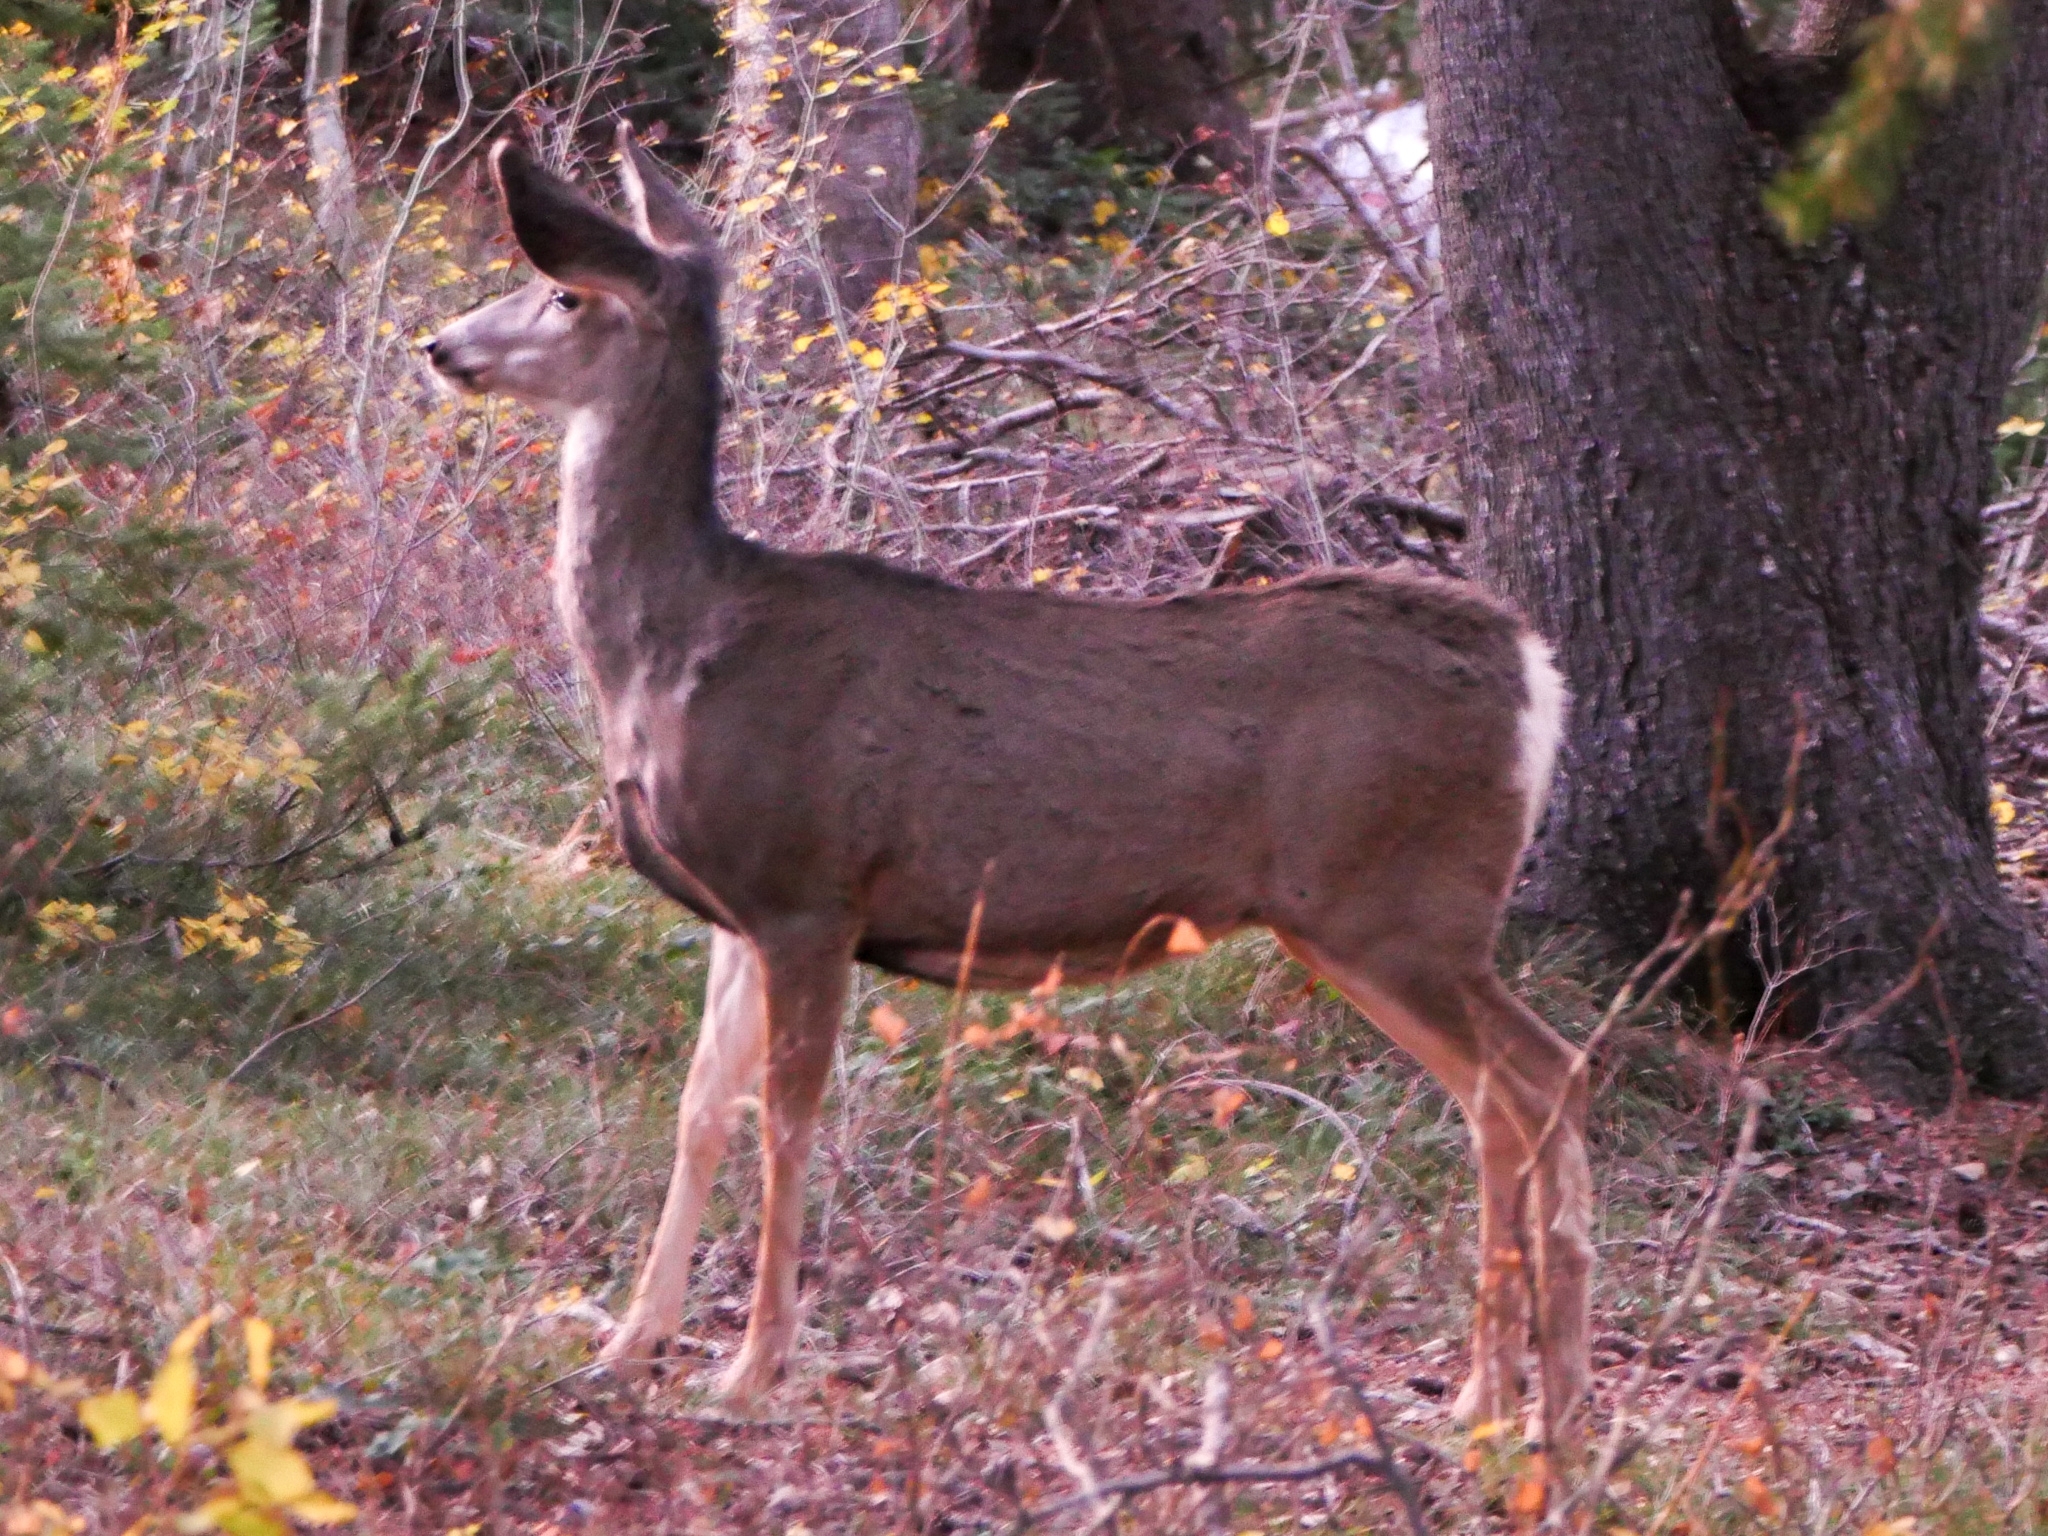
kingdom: Animalia
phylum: Chordata
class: Mammalia
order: Artiodactyla
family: Cervidae
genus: Odocoileus
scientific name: Odocoileus hemionus
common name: Mule deer
